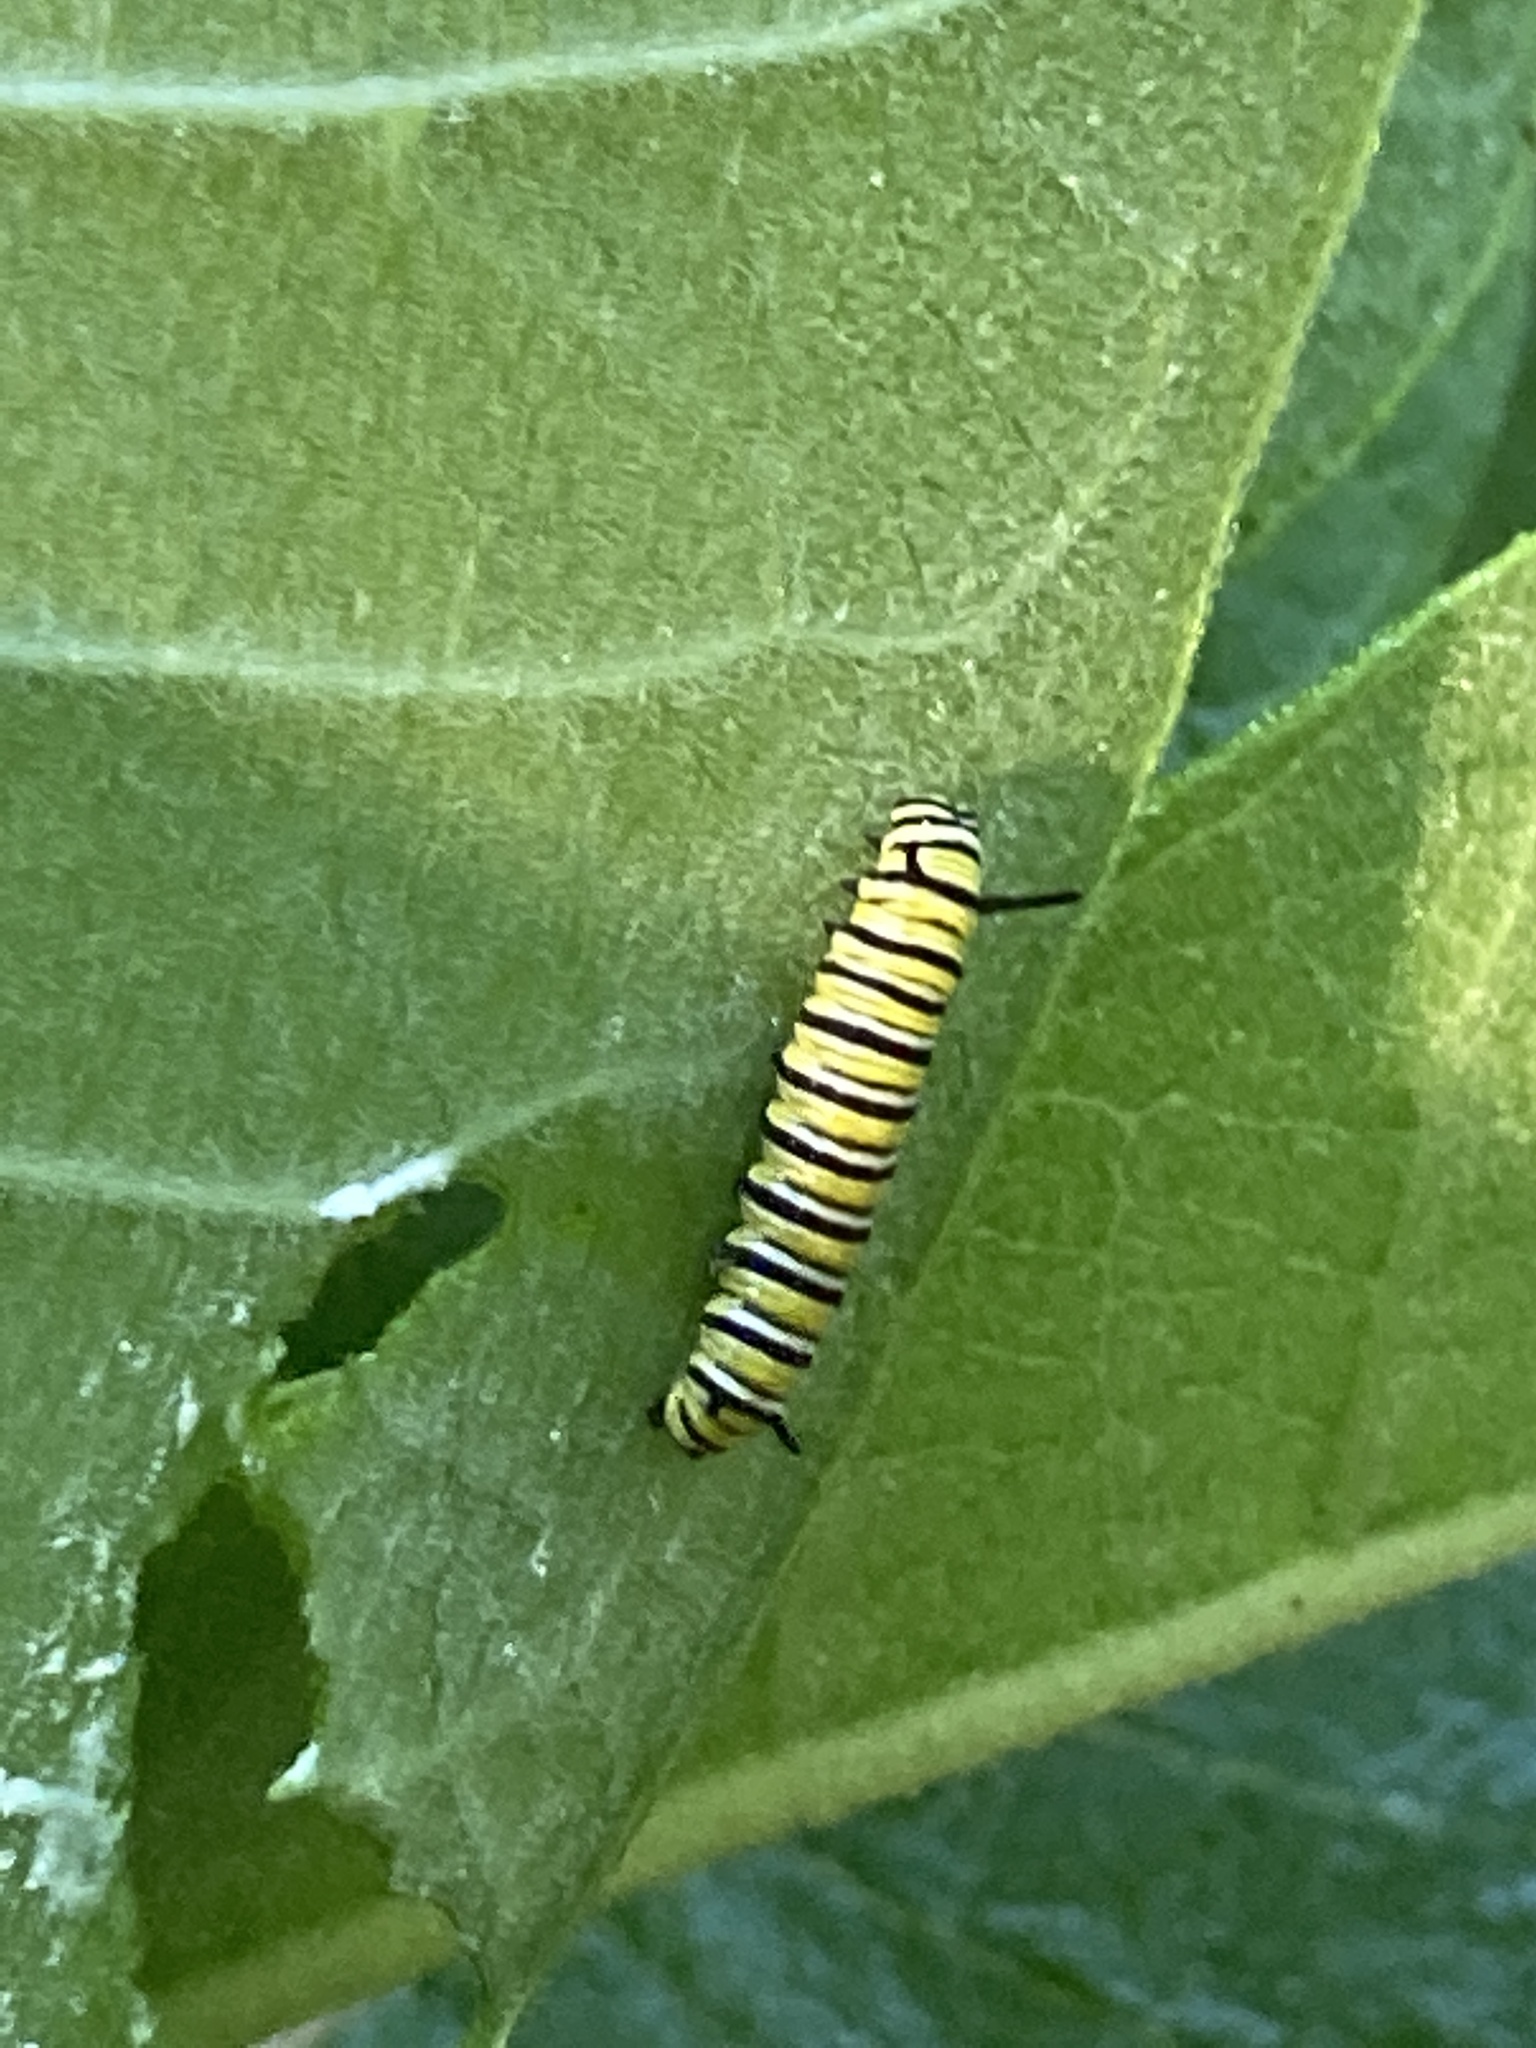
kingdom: Animalia
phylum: Arthropoda
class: Insecta
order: Lepidoptera
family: Nymphalidae
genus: Danaus
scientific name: Danaus plexippus
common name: Monarch
